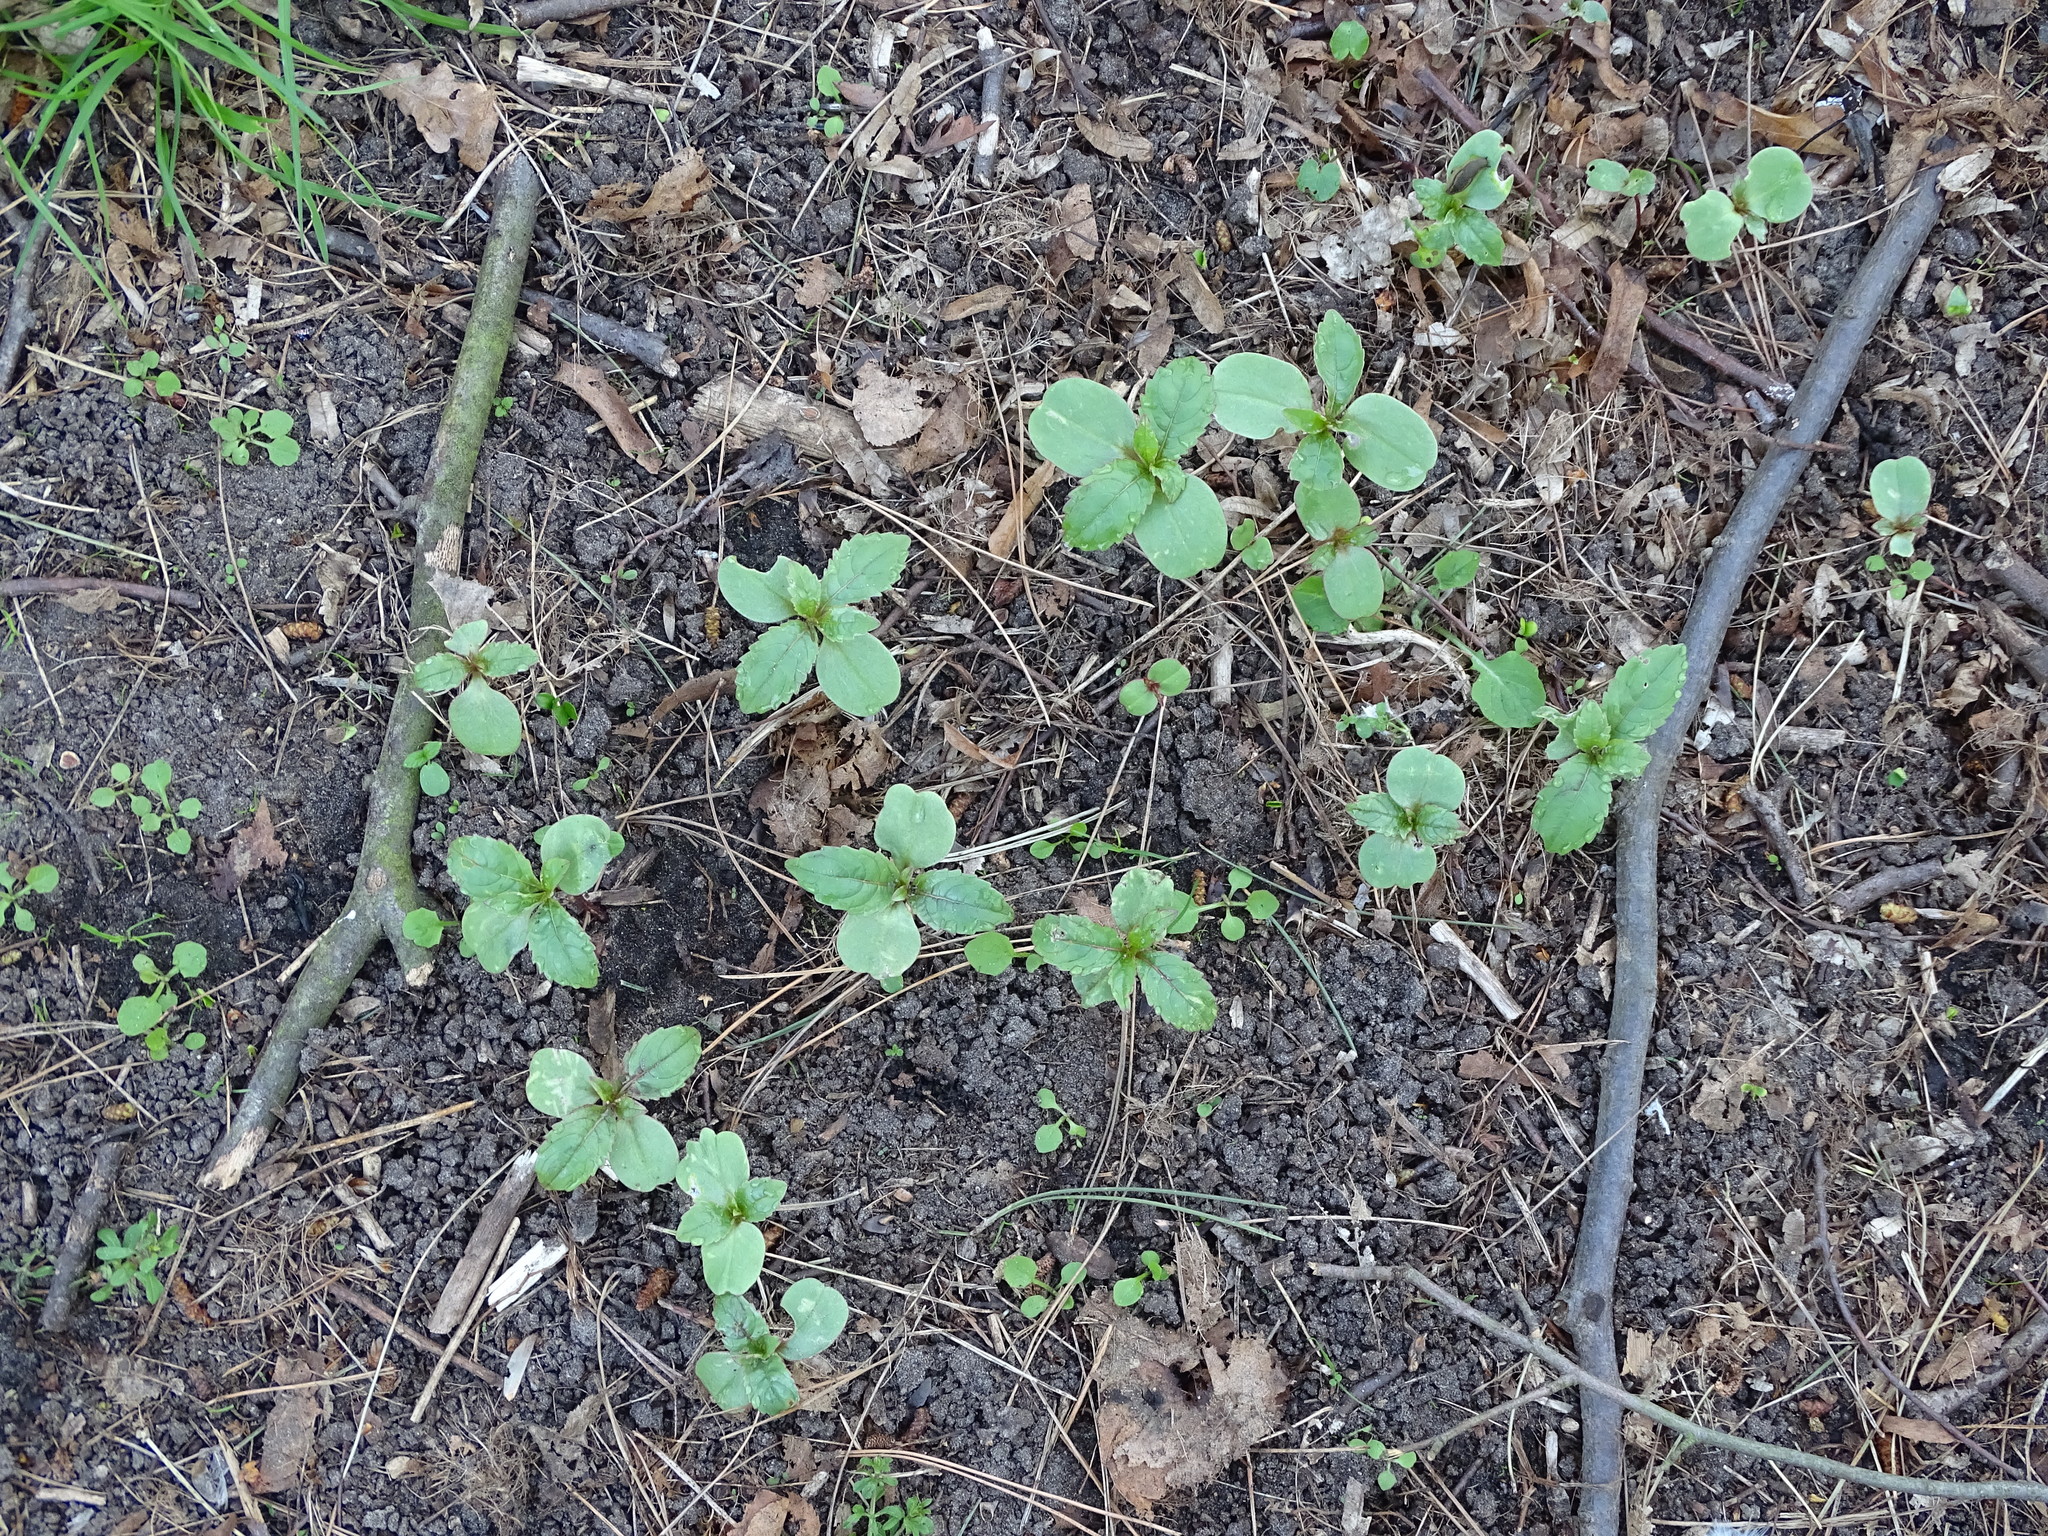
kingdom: Plantae
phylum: Tracheophyta
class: Magnoliopsida
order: Ericales
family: Balsaminaceae
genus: Impatiens
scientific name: Impatiens glandulifera
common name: Himalayan balsam
